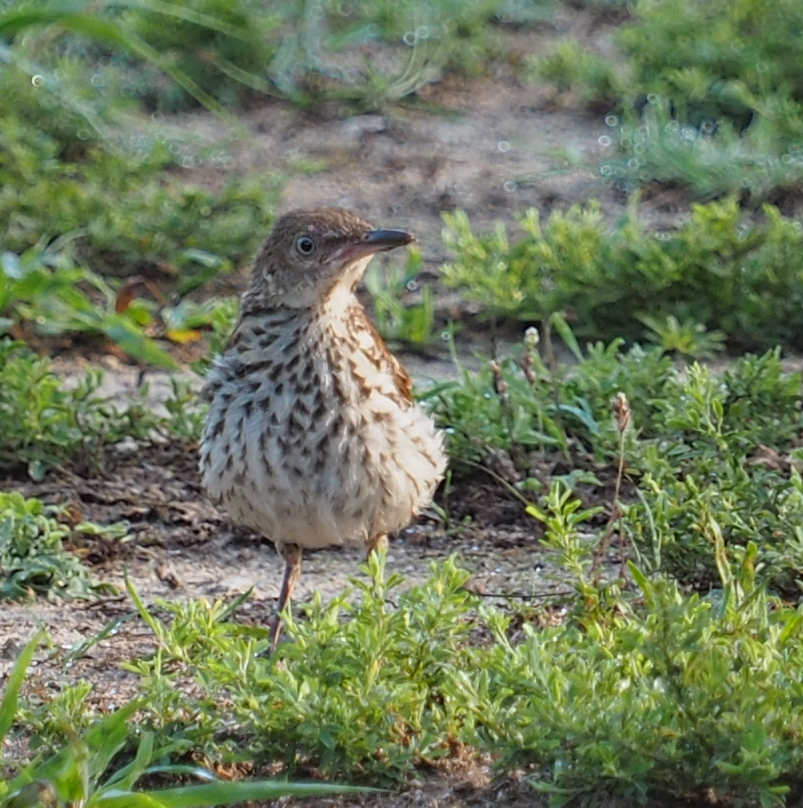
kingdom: Animalia
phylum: Chordata
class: Aves
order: Passeriformes
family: Mimidae
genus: Toxostoma
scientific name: Toxostoma rufum
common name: Brown thrasher
